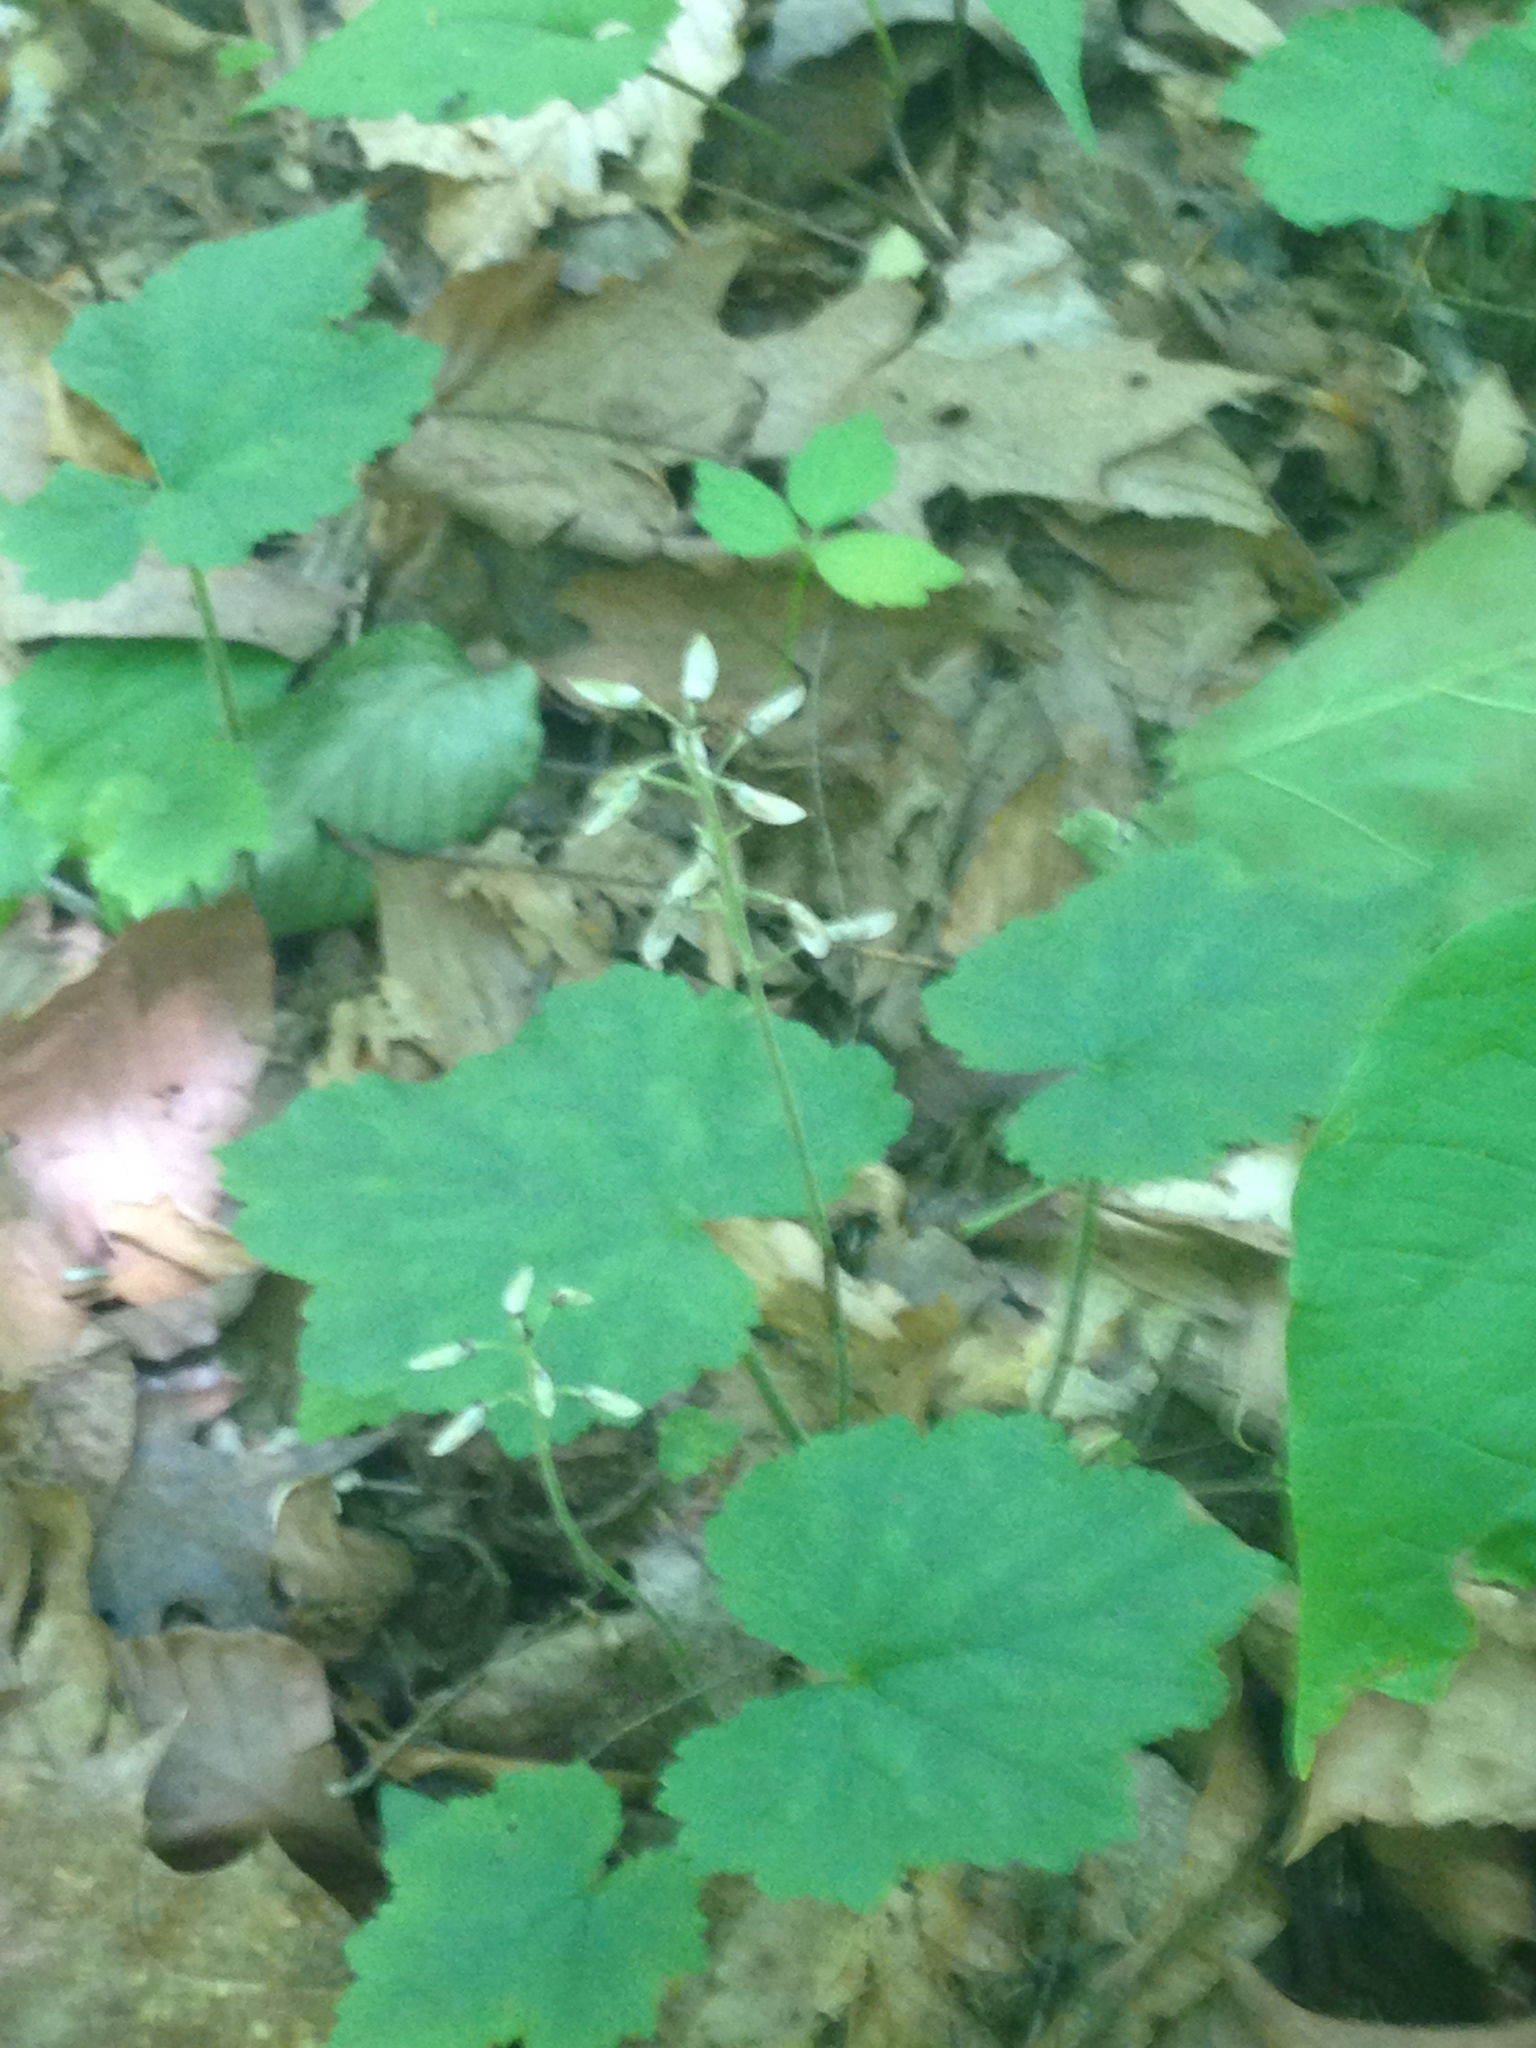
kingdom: Plantae
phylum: Tracheophyta
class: Magnoliopsida
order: Saxifragales
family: Saxifragaceae
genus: Tiarella
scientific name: Tiarella stolonifera
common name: Stoloniferous foamflower
